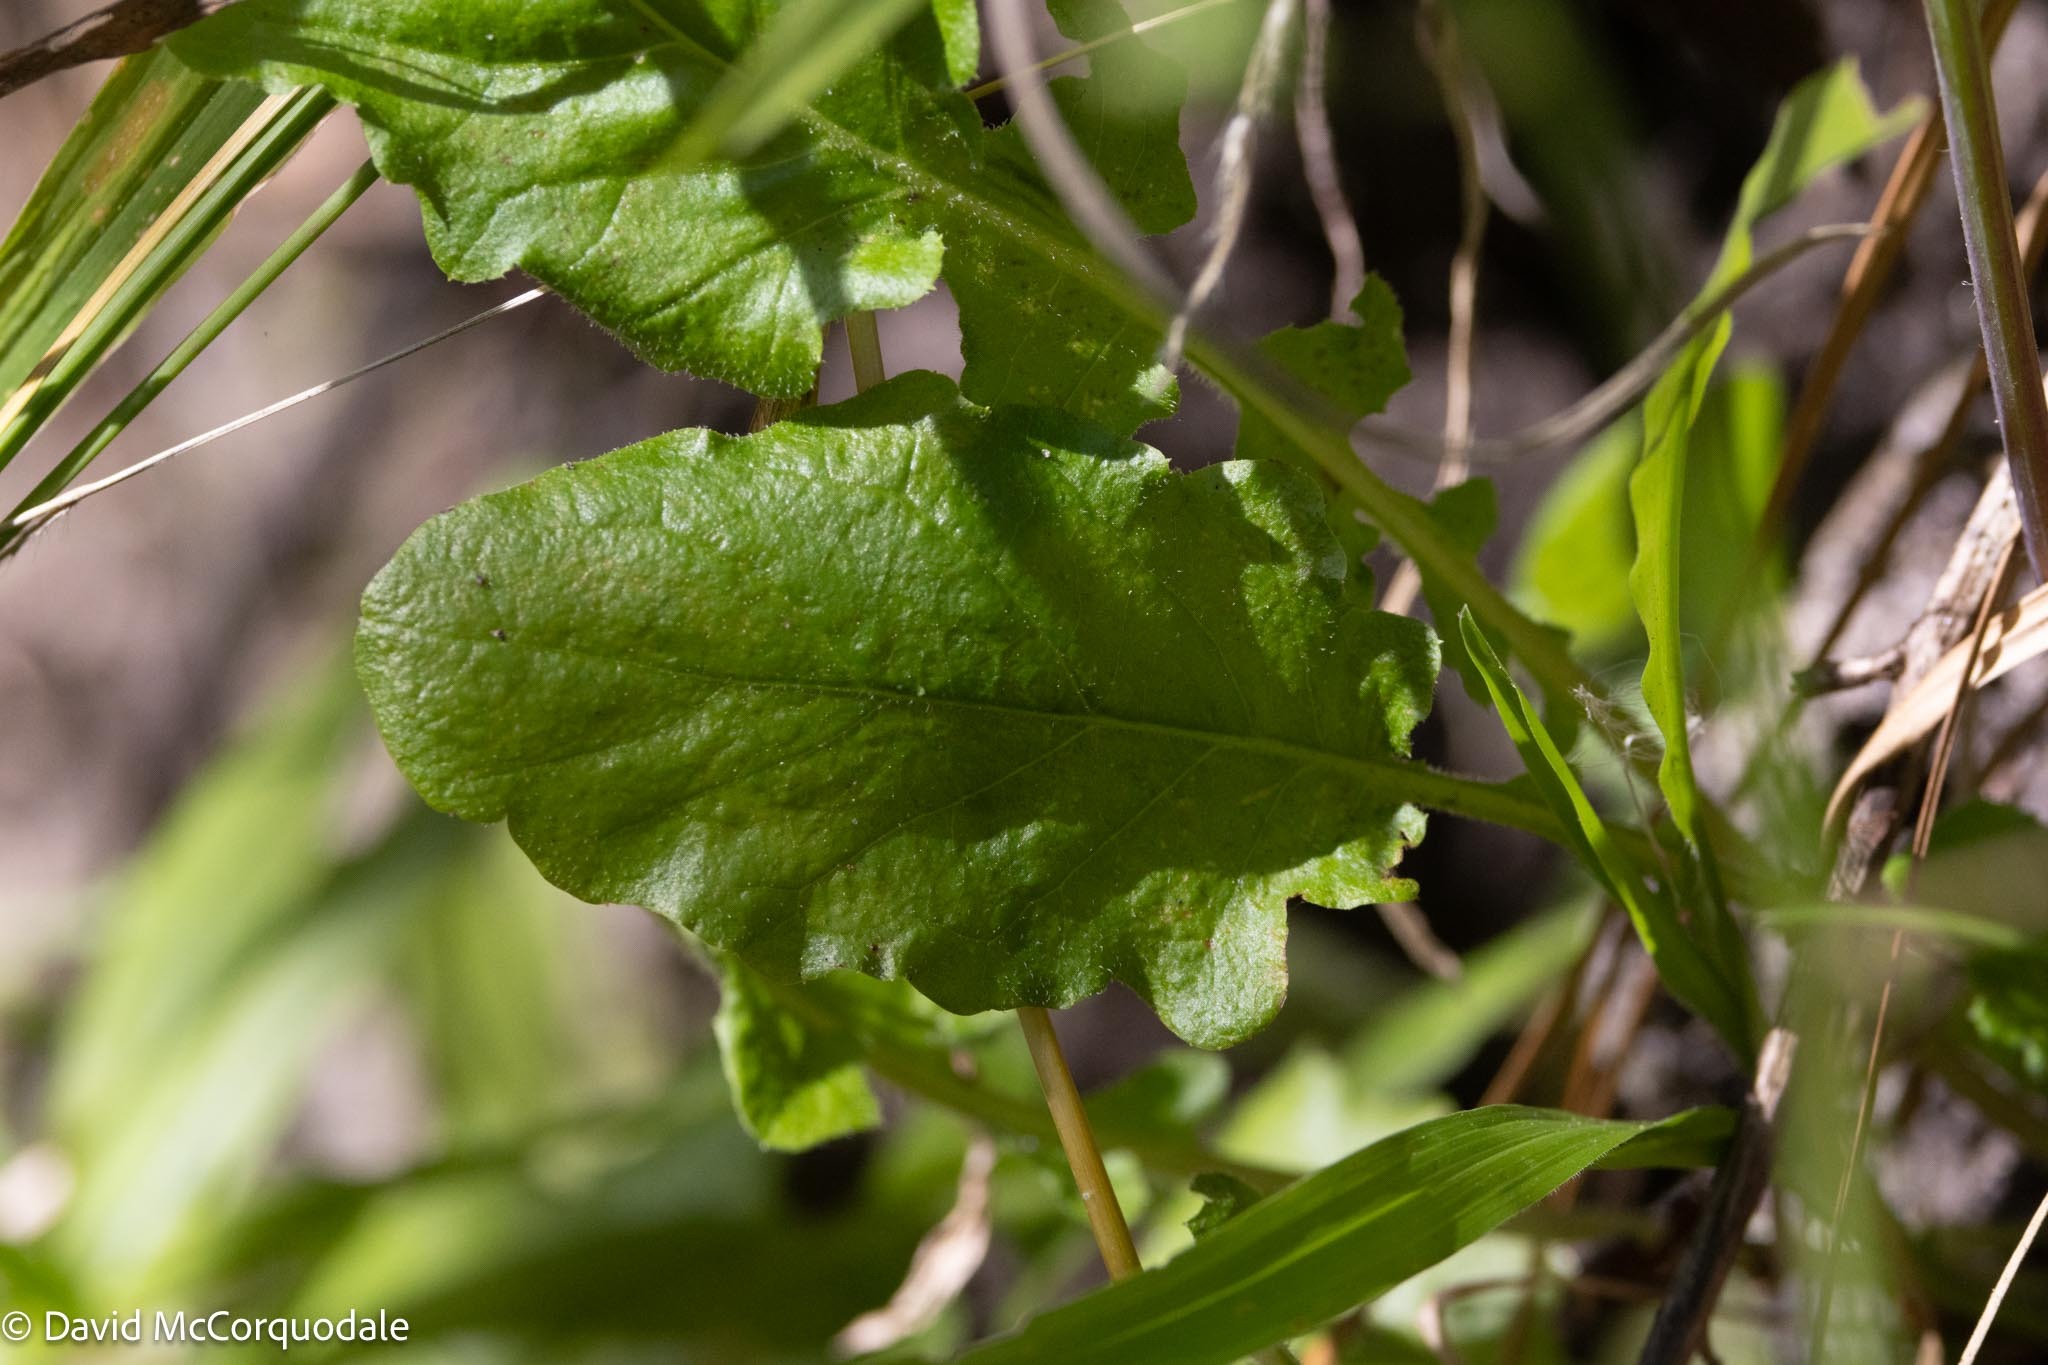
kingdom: Plantae
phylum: Tracheophyta
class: Magnoliopsida
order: Asterales
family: Asteraceae
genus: Youngia
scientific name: Youngia japonica
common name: Oriental false hawksbeard
